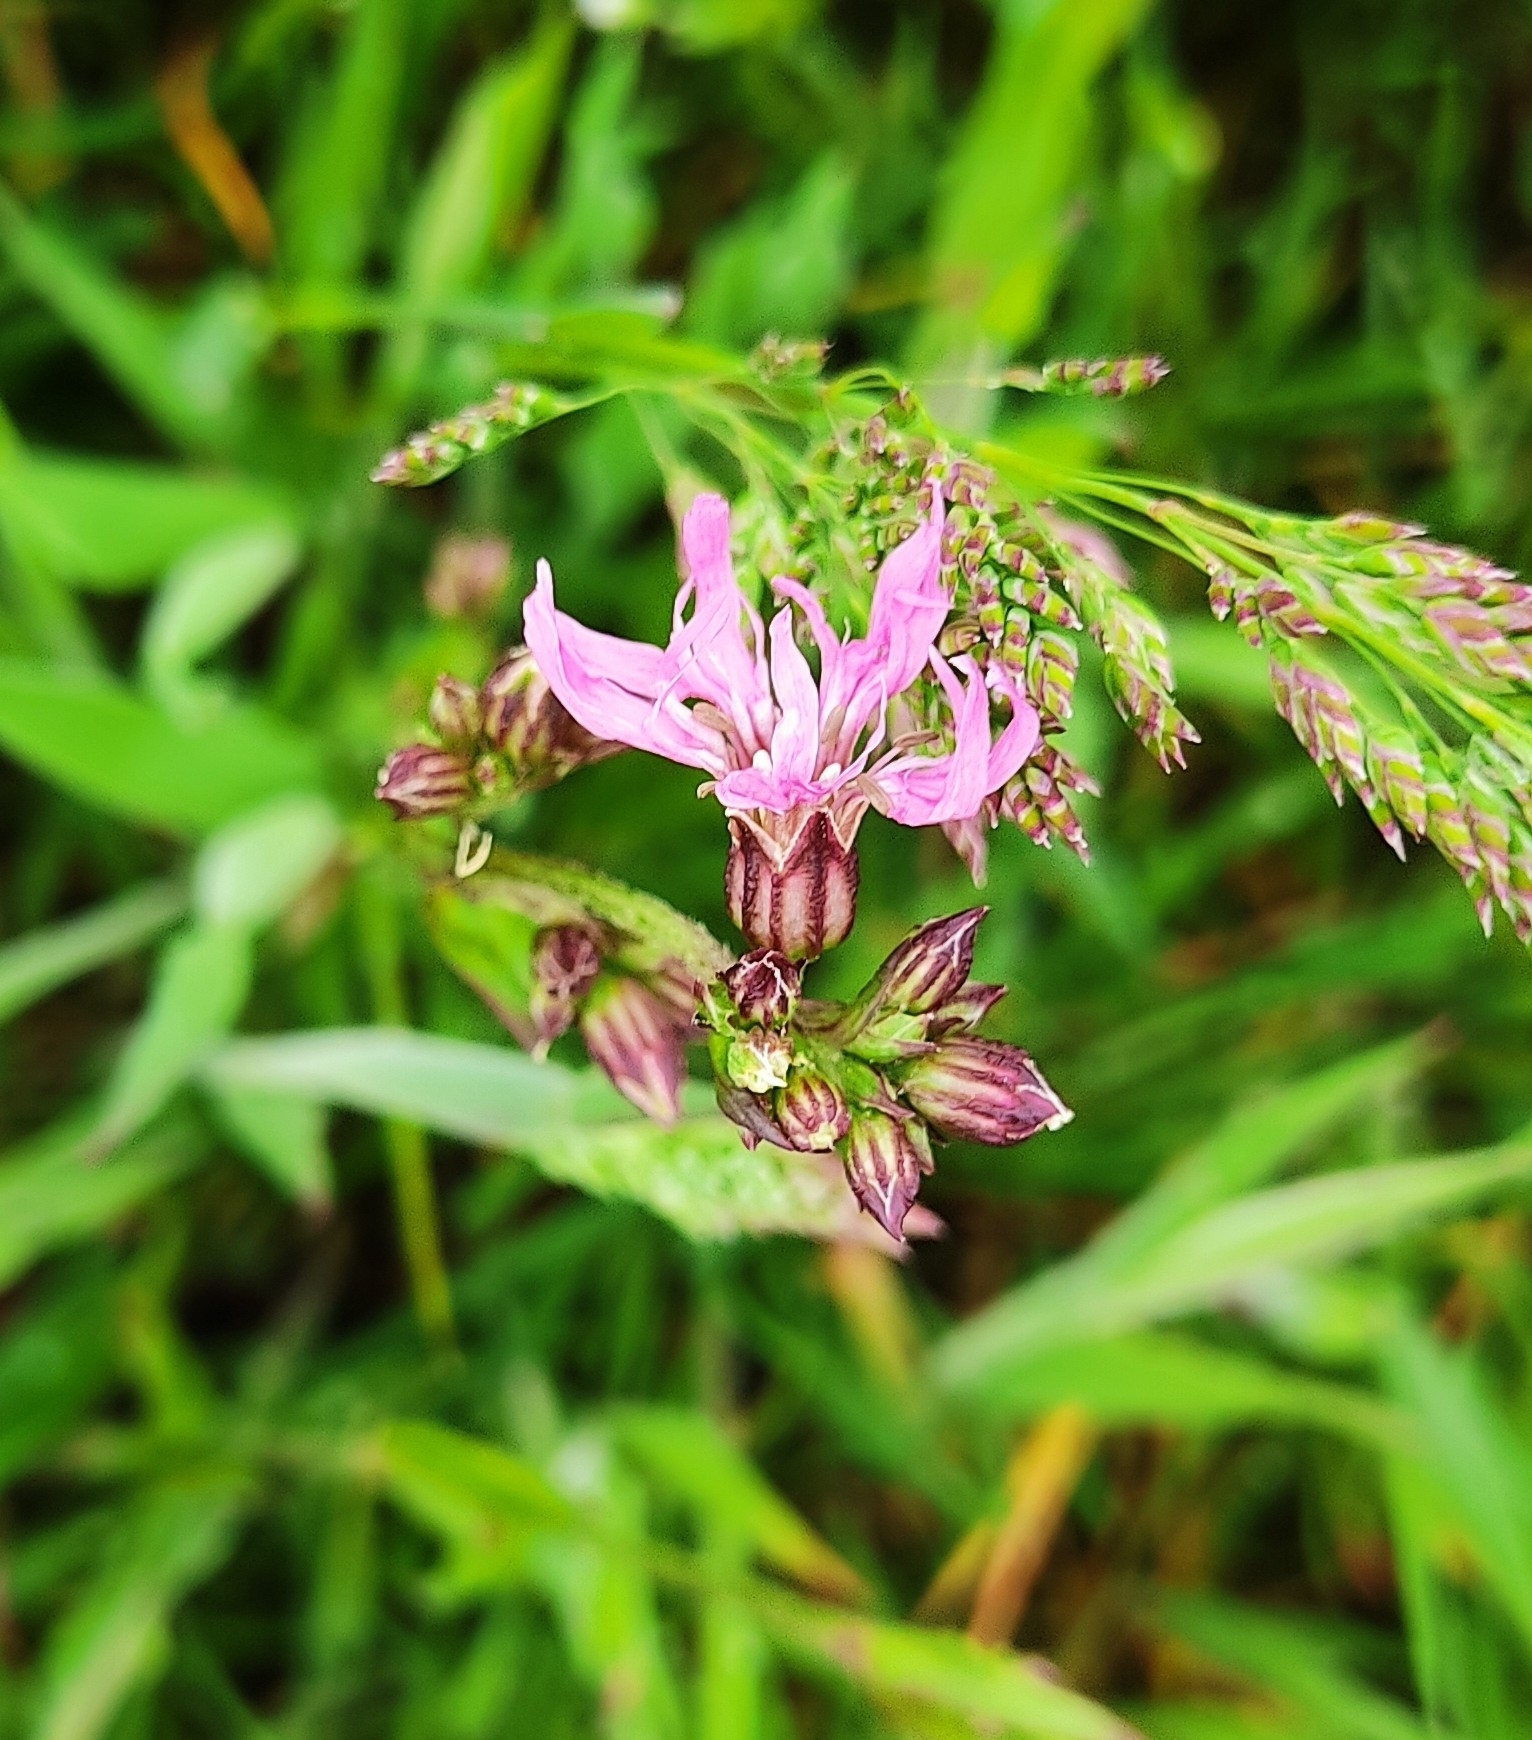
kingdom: Plantae
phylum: Tracheophyta
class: Magnoliopsida
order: Caryophyllales
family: Caryophyllaceae
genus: Silene
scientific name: Silene flos-cuculi
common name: Ragged-robin
